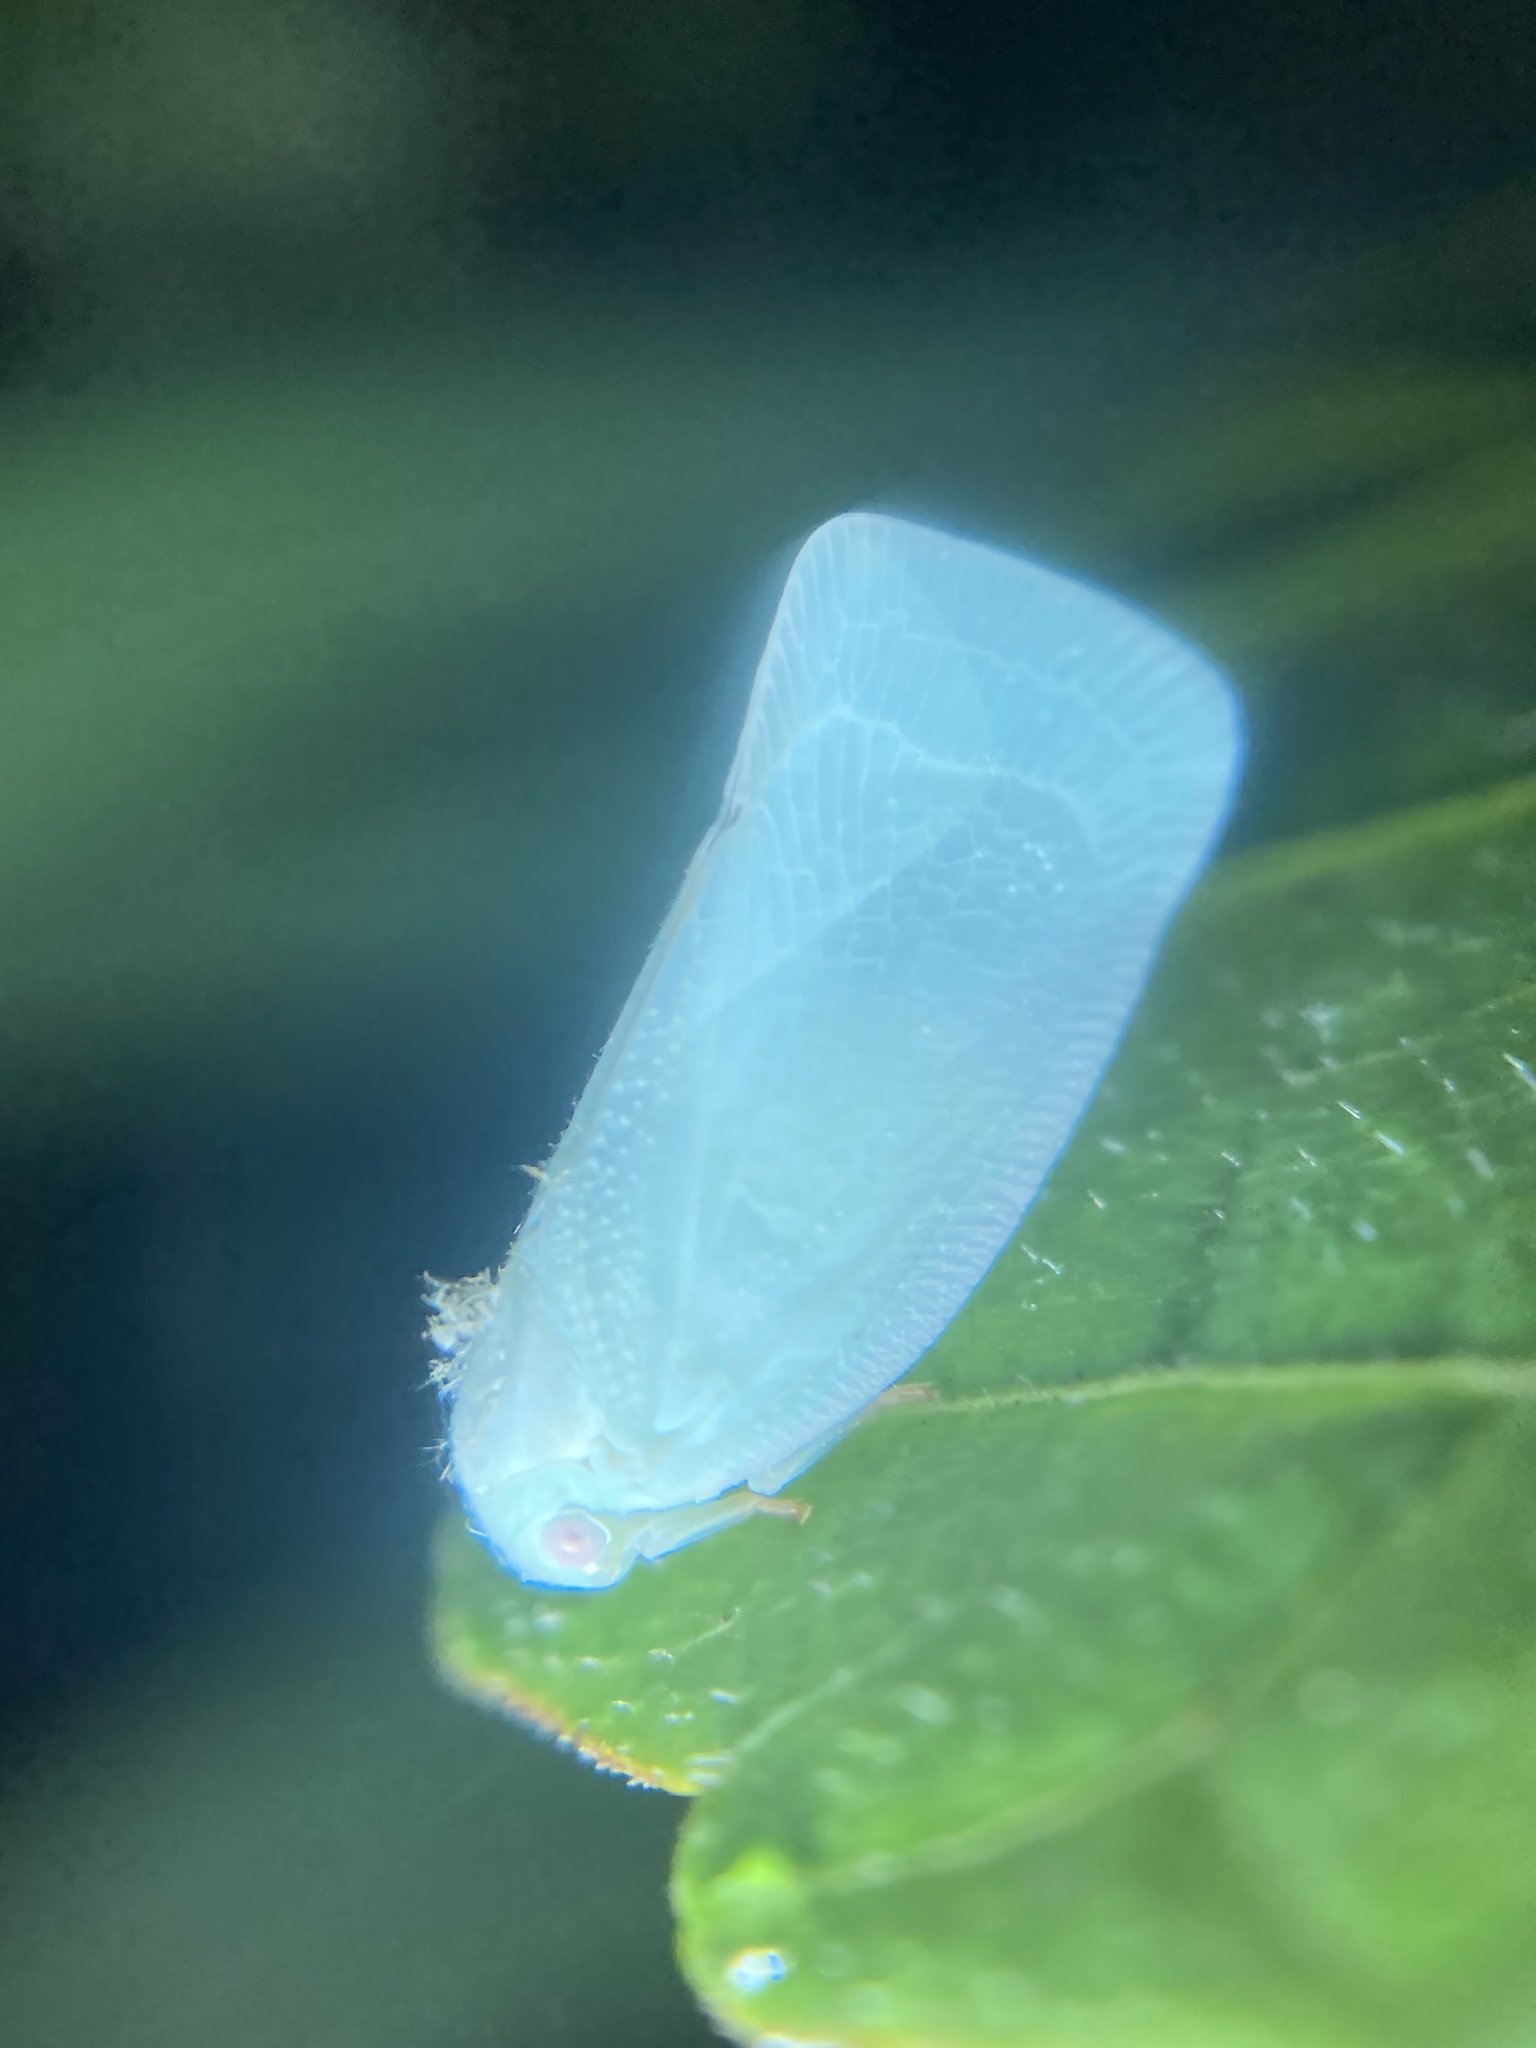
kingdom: Animalia
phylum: Arthropoda
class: Insecta
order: Hemiptera
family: Flatidae
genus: Flatormenis
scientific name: Flatormenis proxima
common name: Northern flatid planthopper
